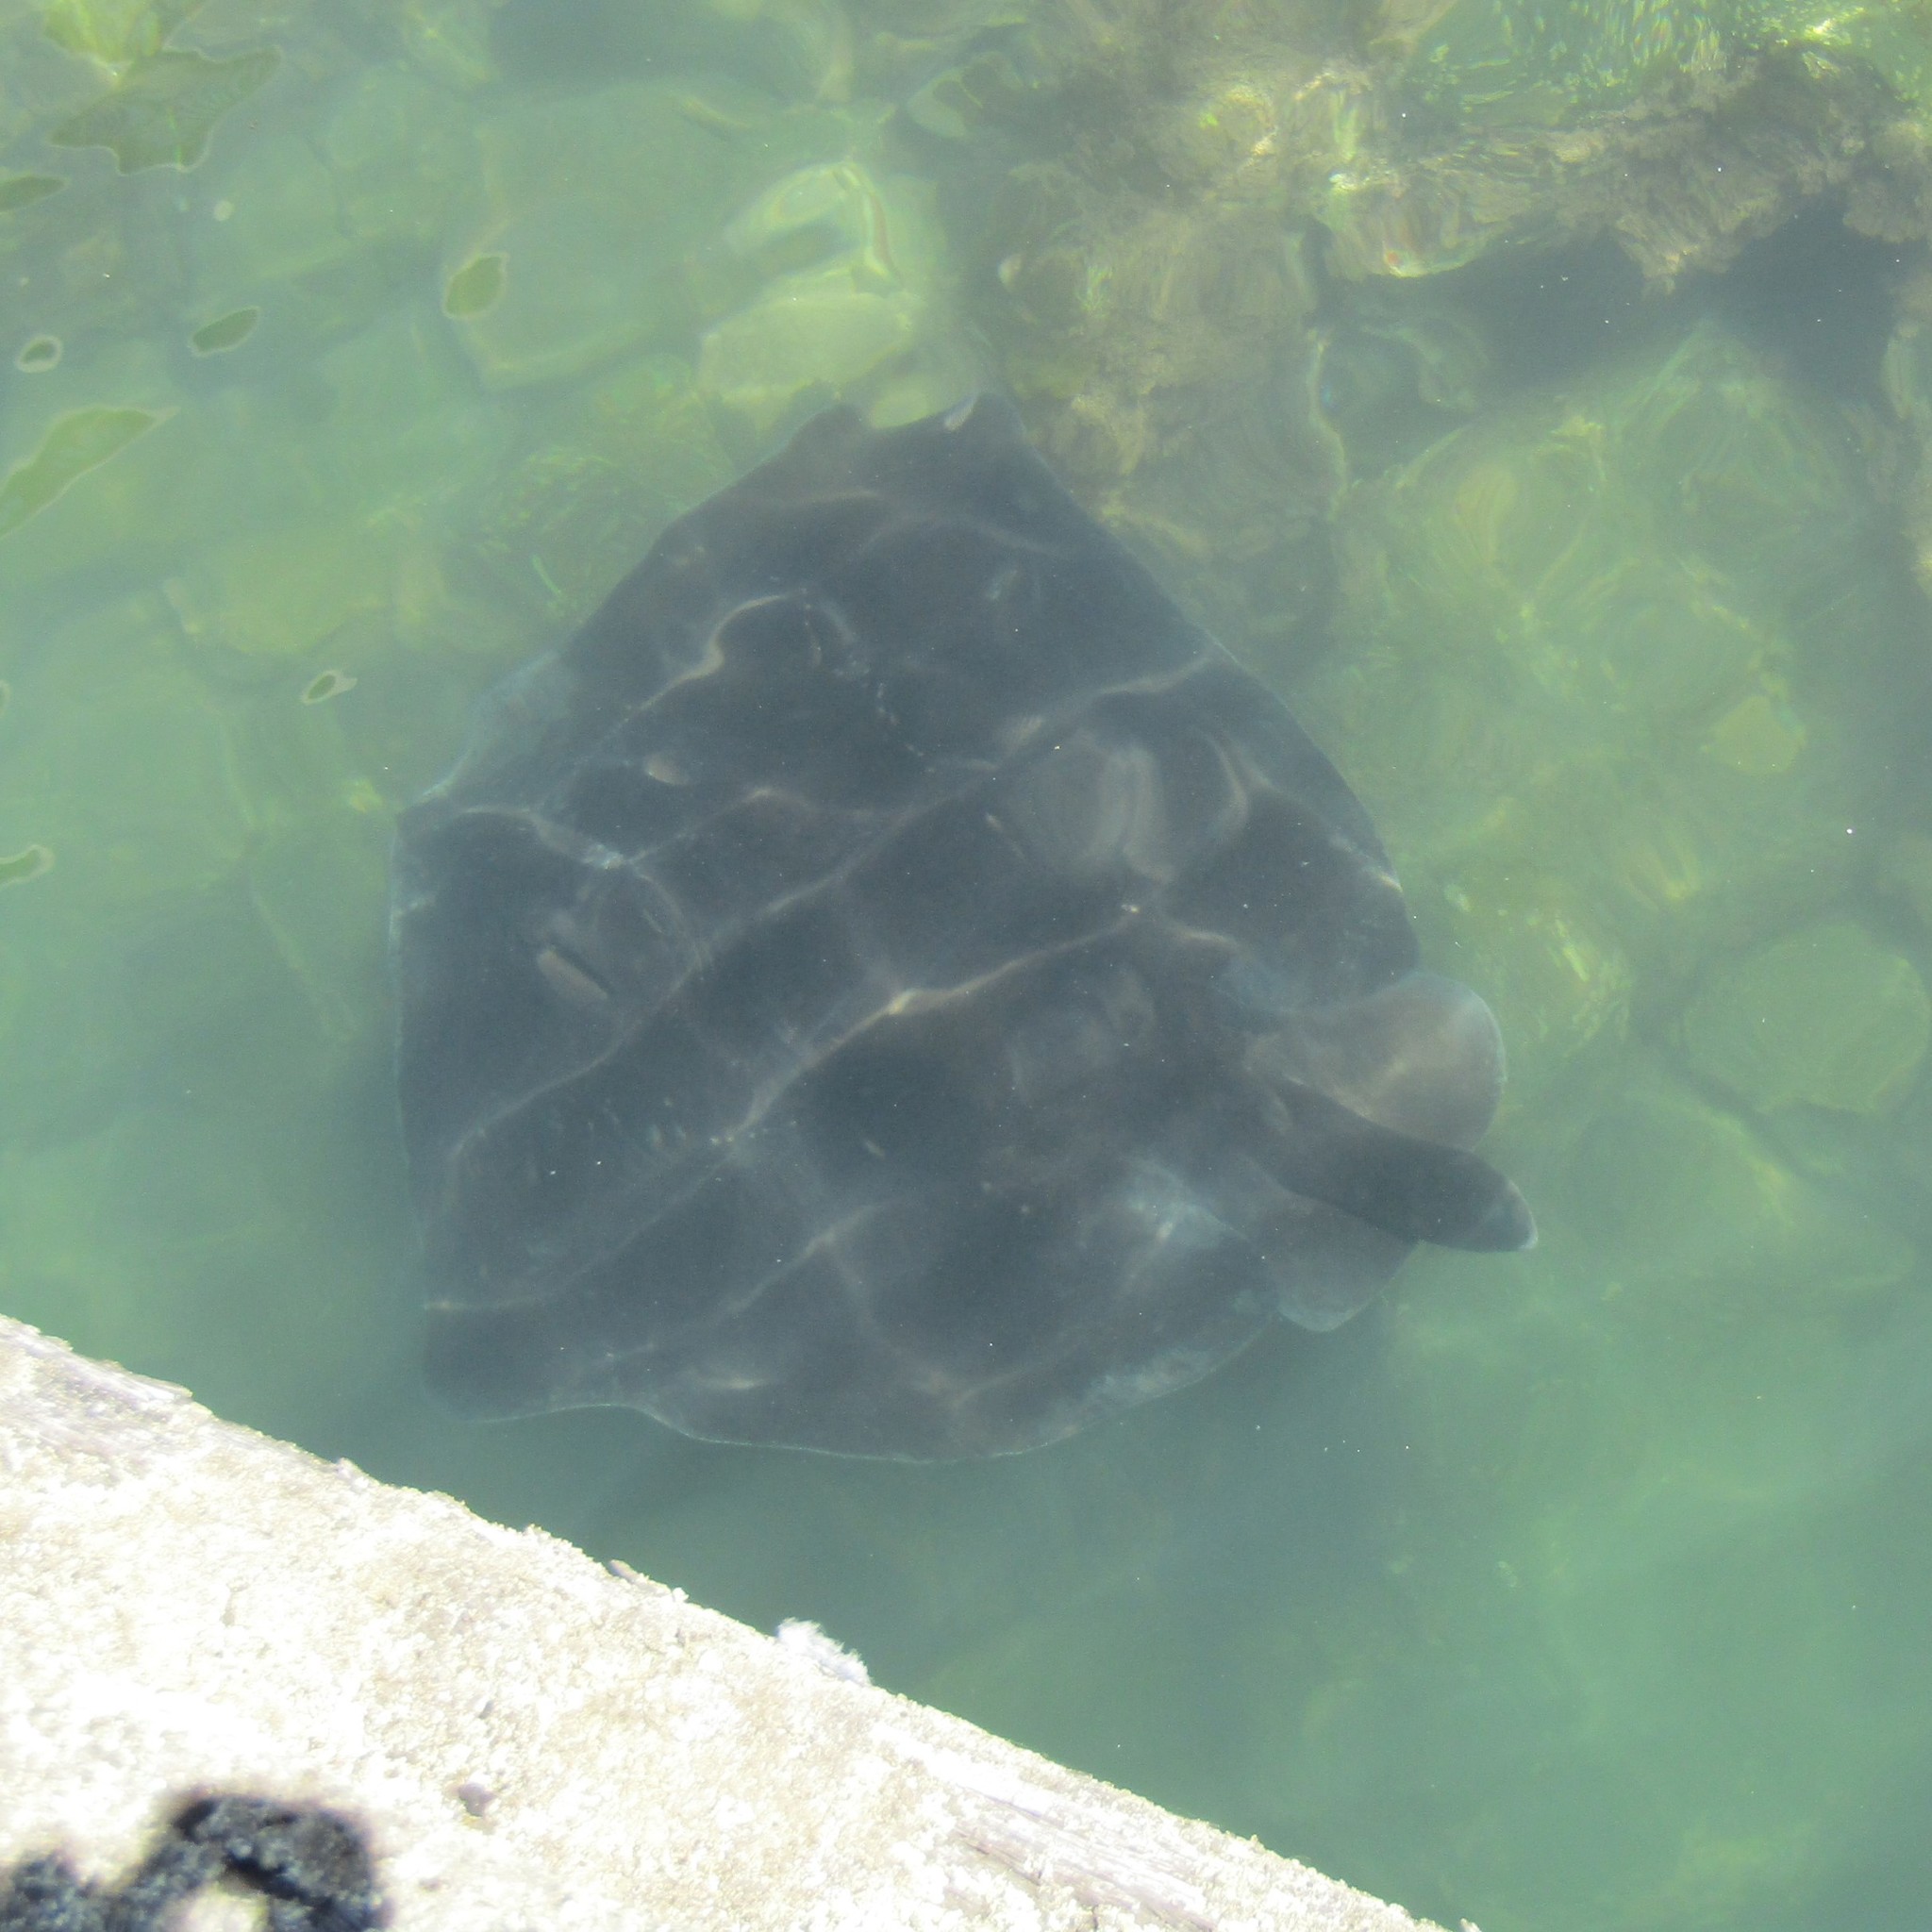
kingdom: Animalia
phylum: Chordata
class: Elasmobranchii
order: Myliobatiformes
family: Dasyatidae
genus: Bathytoshia
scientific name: Bathytoshia brevicaudata
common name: Short-tail stingray
